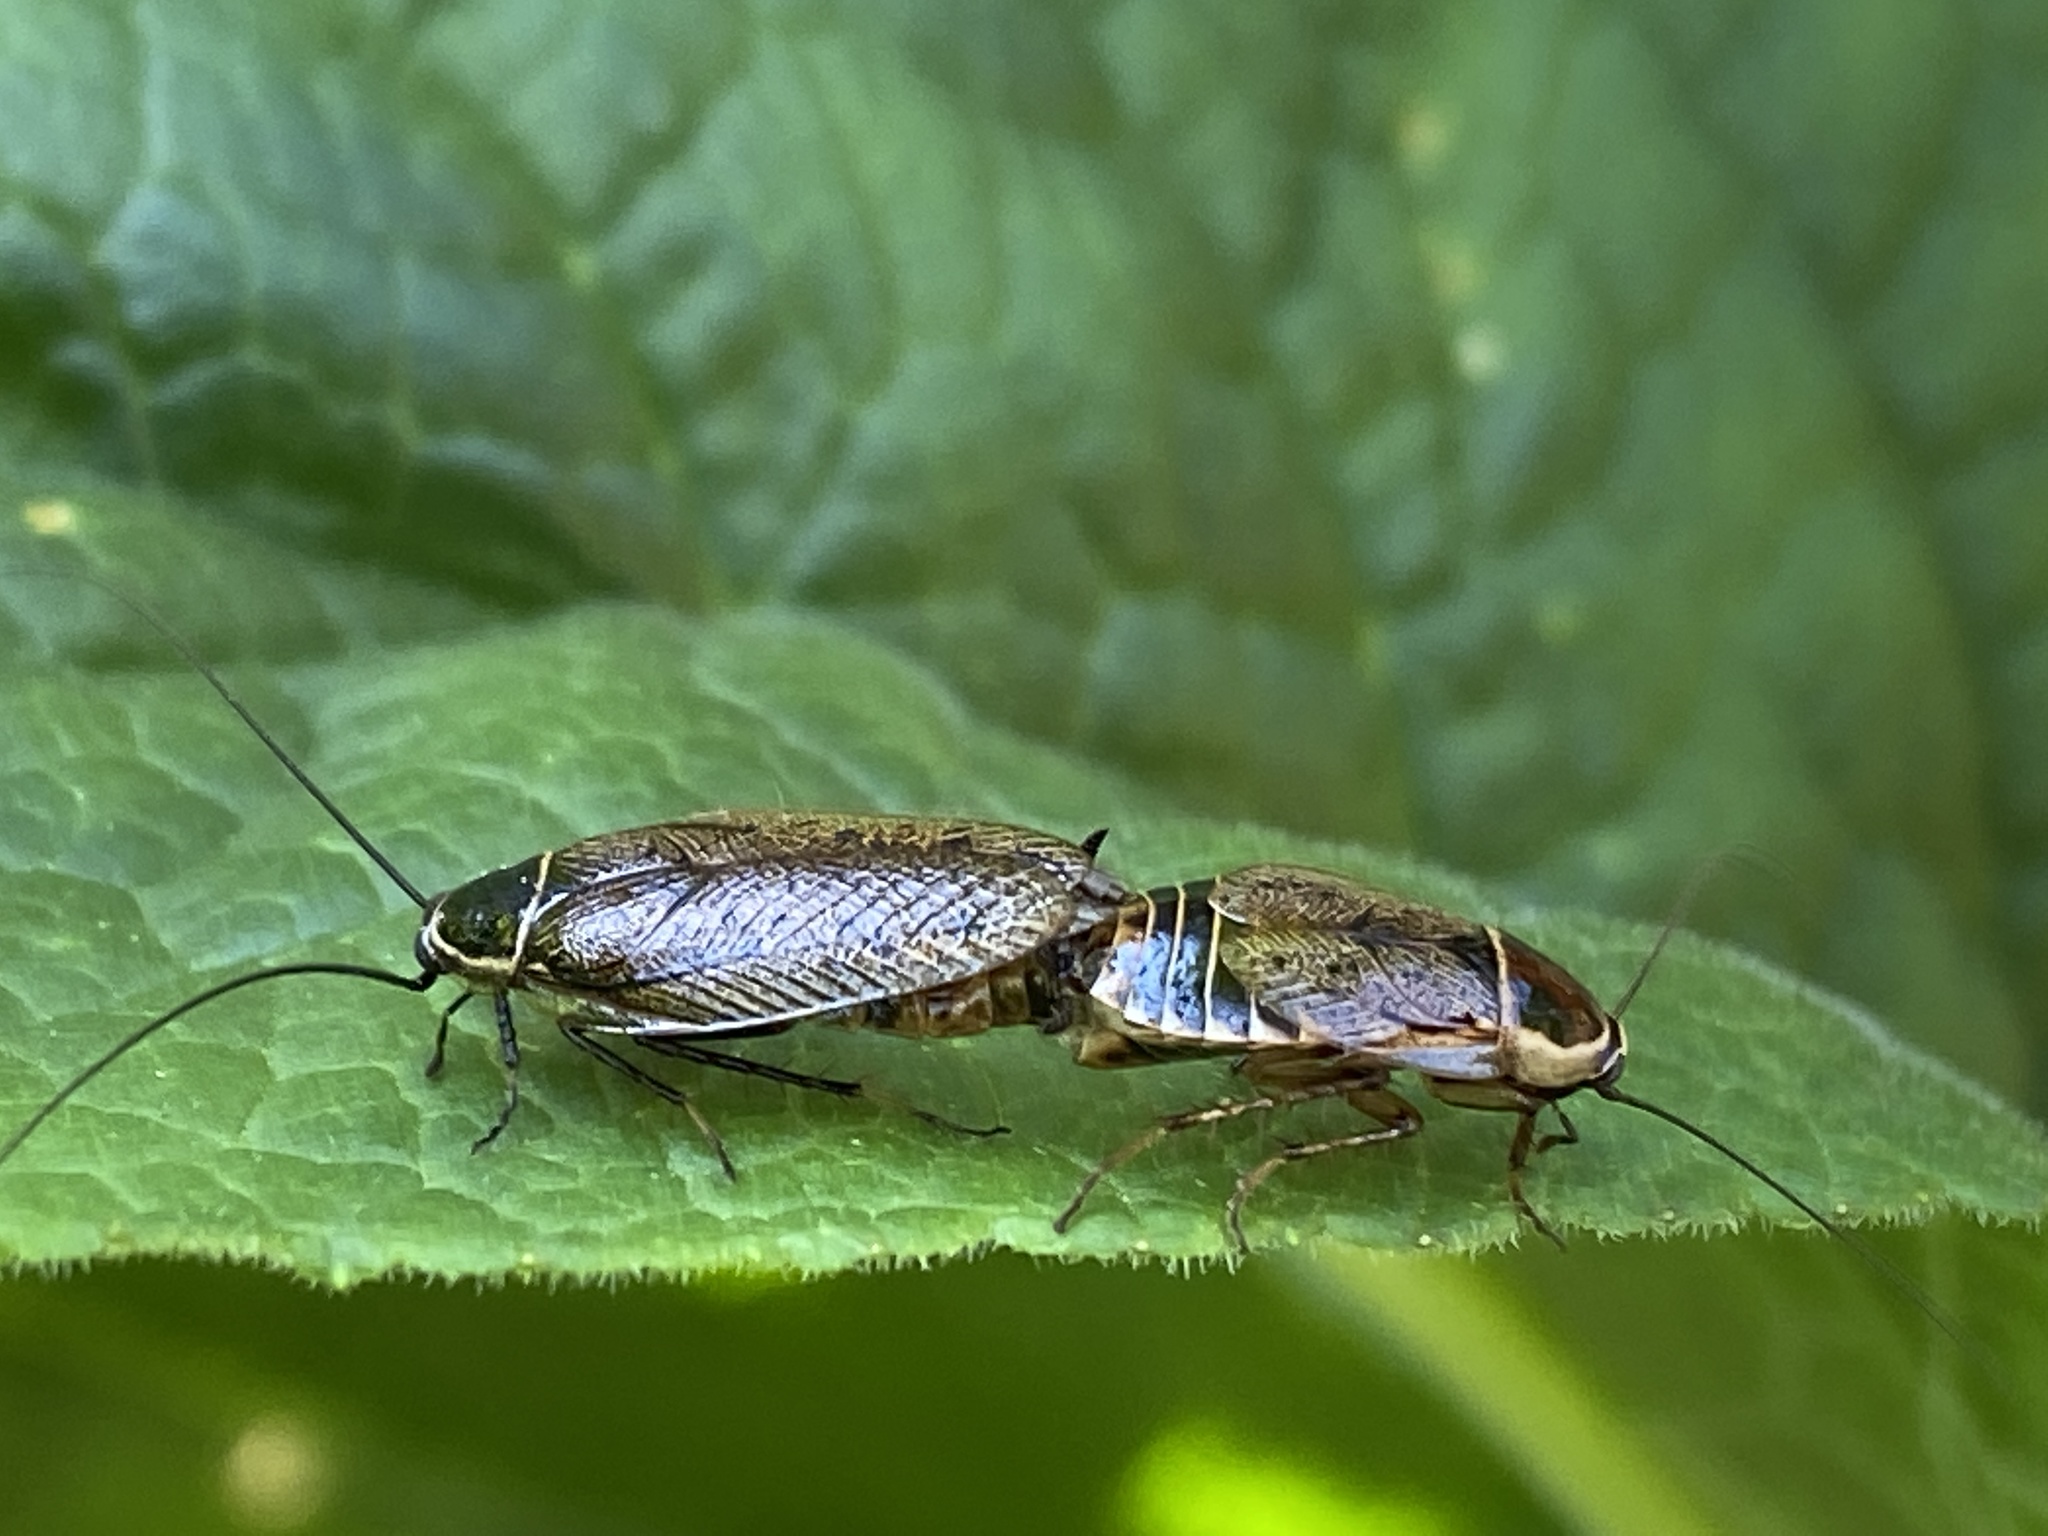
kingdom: Animalia
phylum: Arthropoda
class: Insecta
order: Blattodea
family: Ectobiidae
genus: Ectobius
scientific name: Ectobius sylvestris
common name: Forest cockroach
